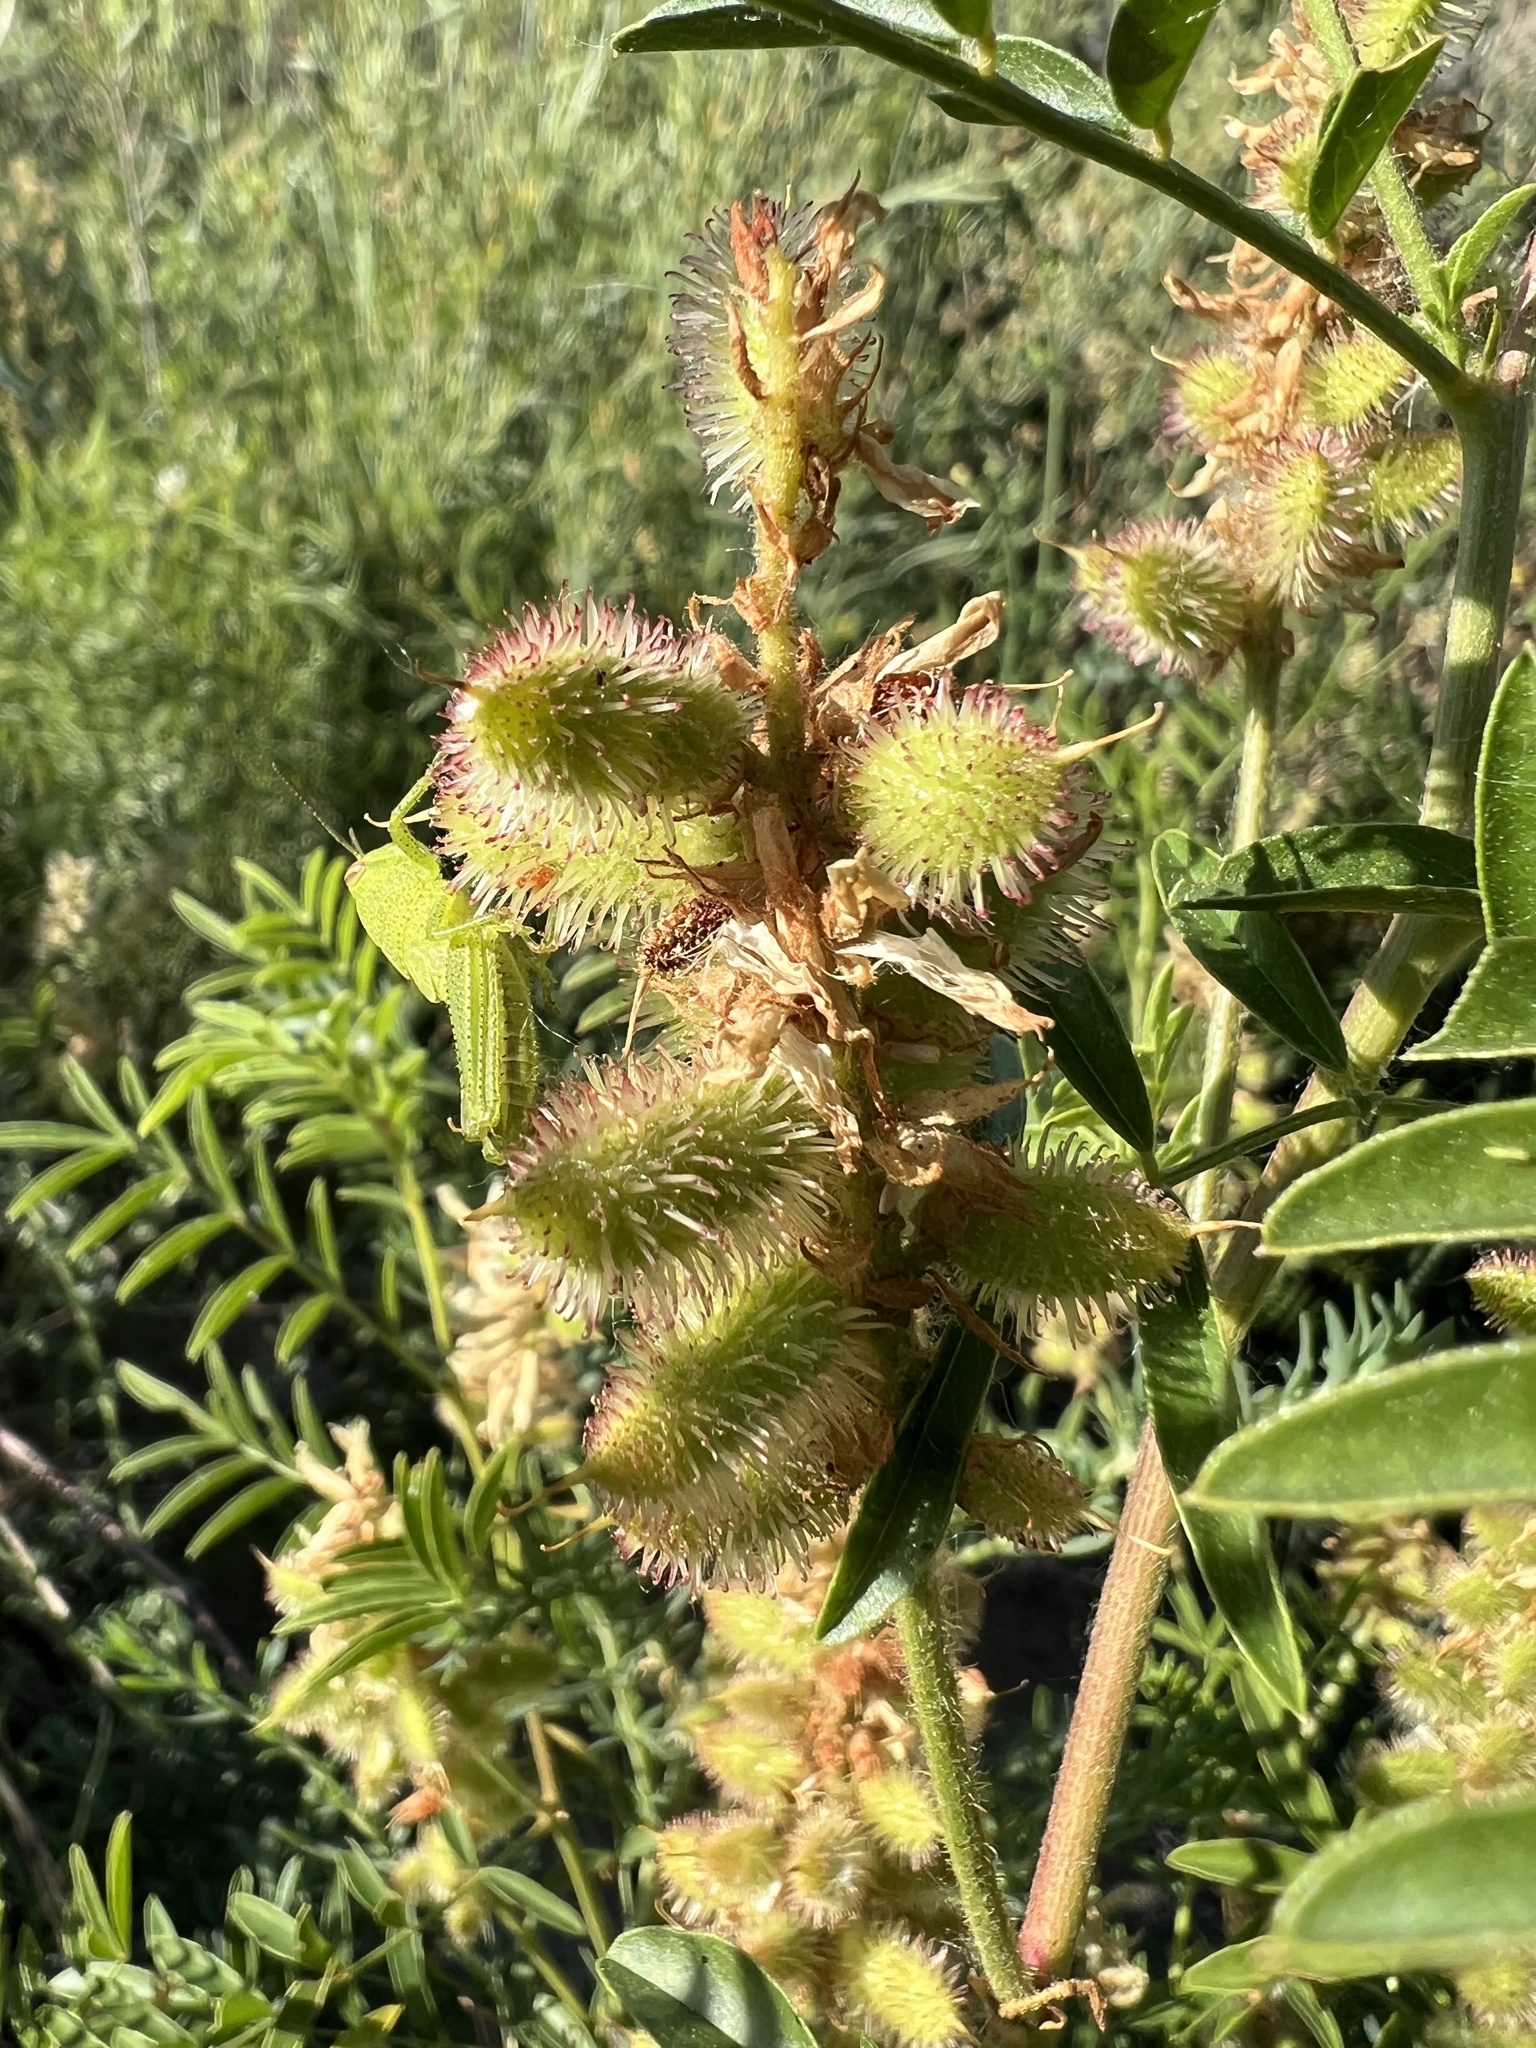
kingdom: Plantae
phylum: Tracheophyta
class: Magnoliopsida
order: Fabales
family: Fabaceae
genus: Glycyrrhiza
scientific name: Glycyrrhiza lepidota
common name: American liquorice
